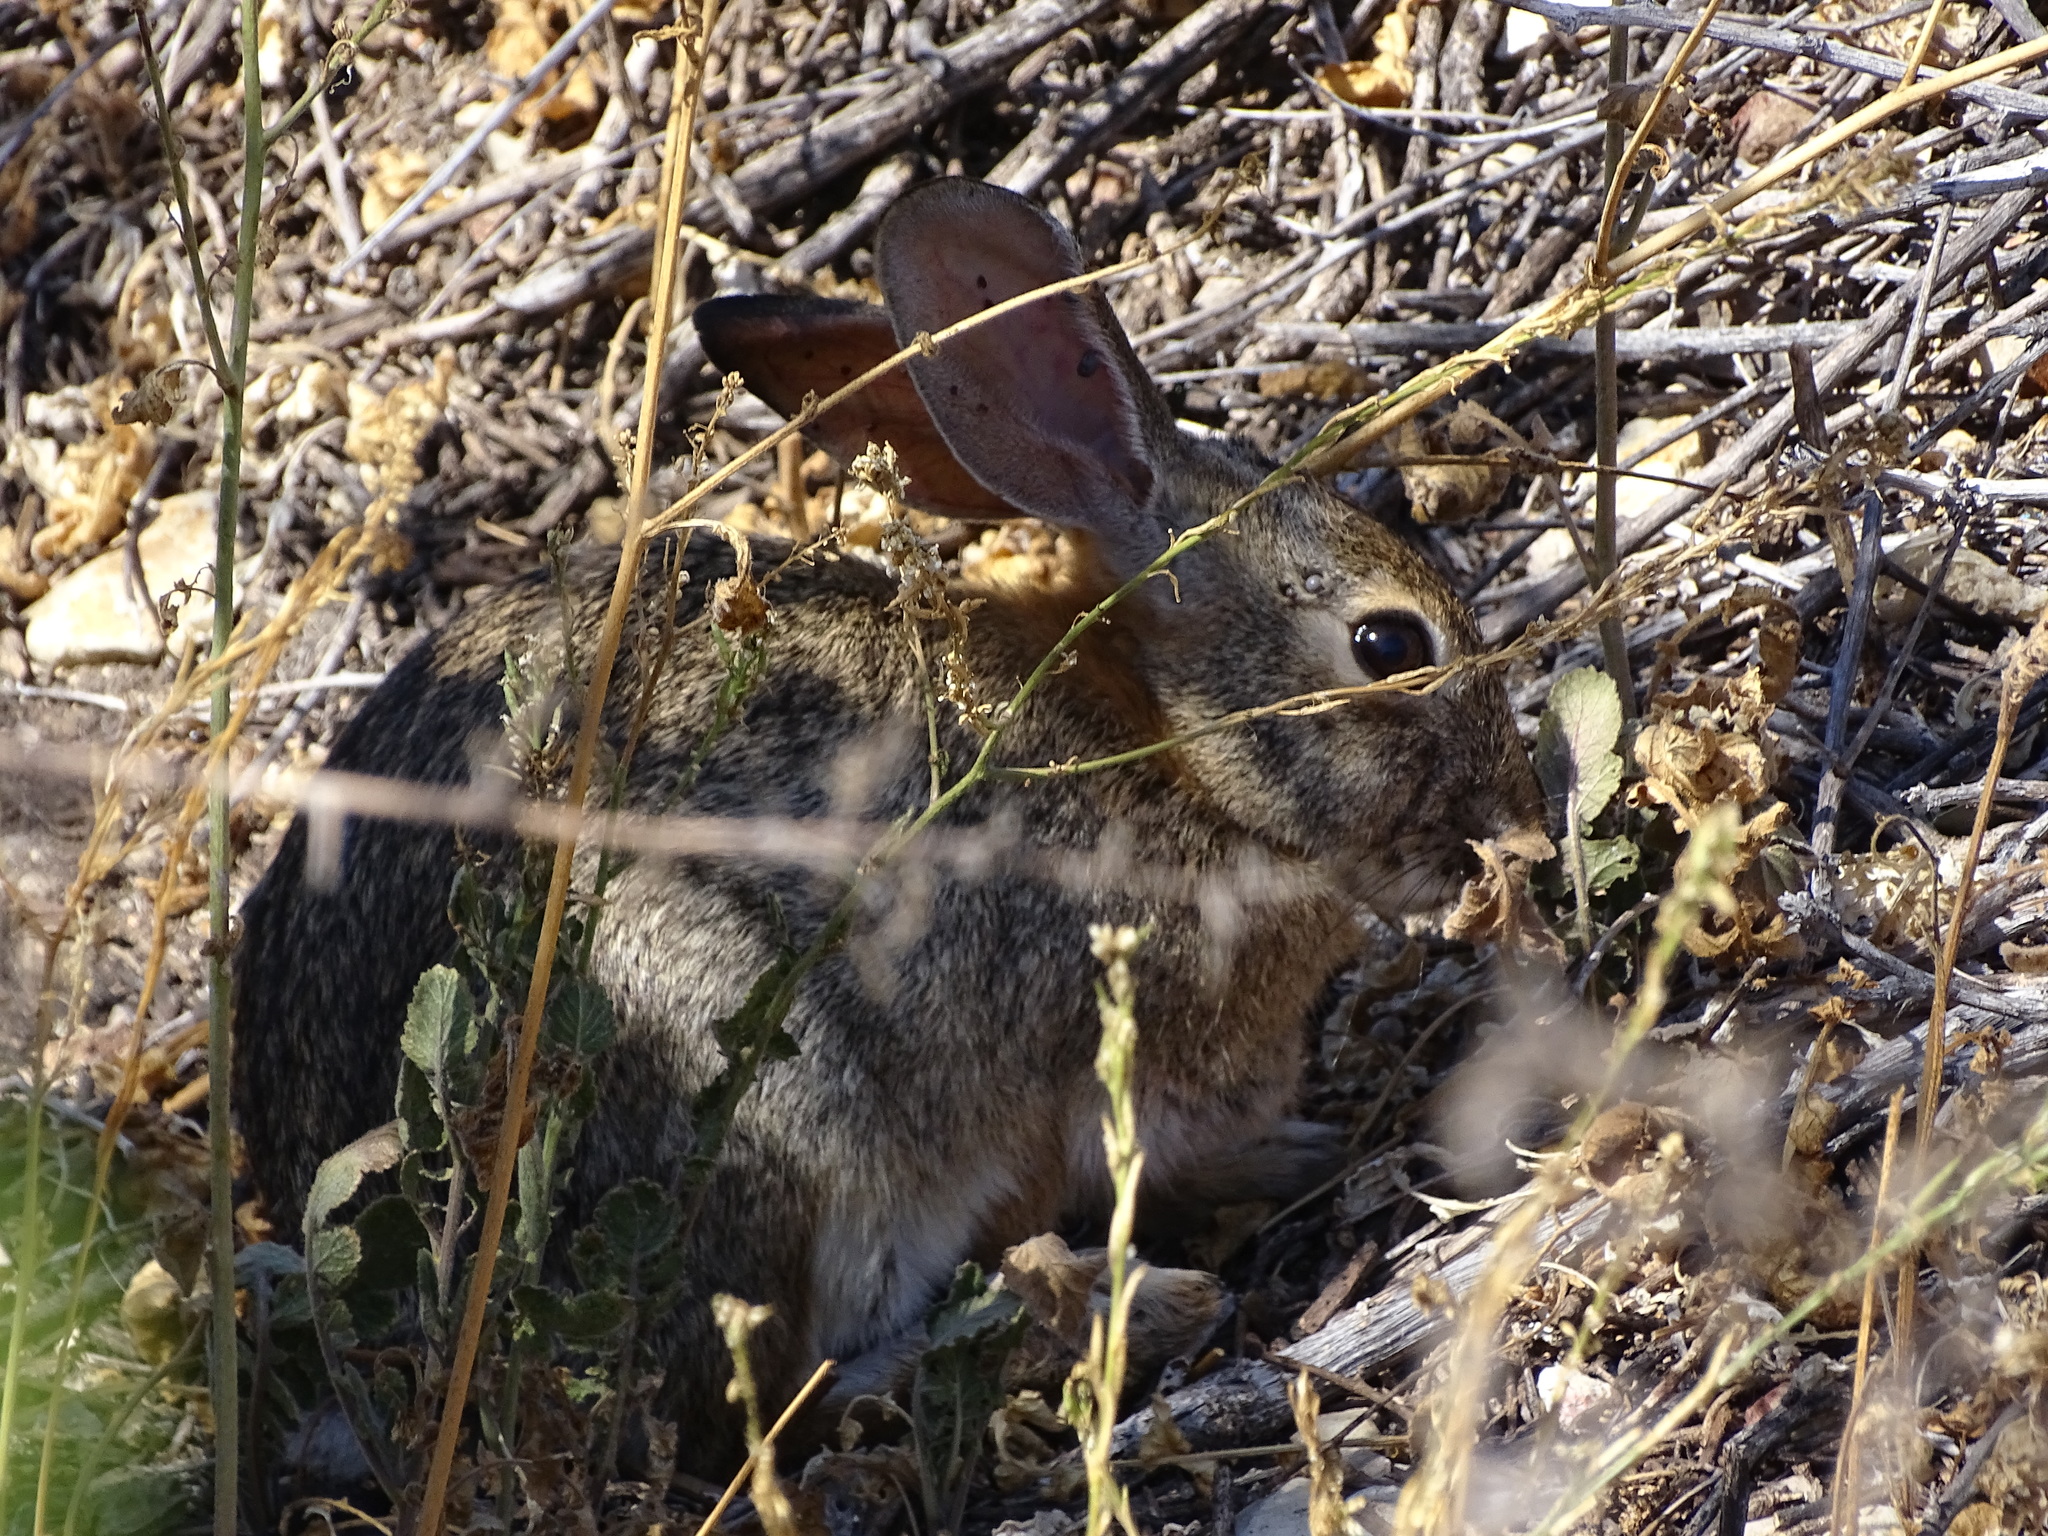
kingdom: Animalia
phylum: Chordata
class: Mammalia
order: Lagomorpha
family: Leporidae
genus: Sylvilagus
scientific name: Sylvilagus audubonii
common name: Desert cottontail
